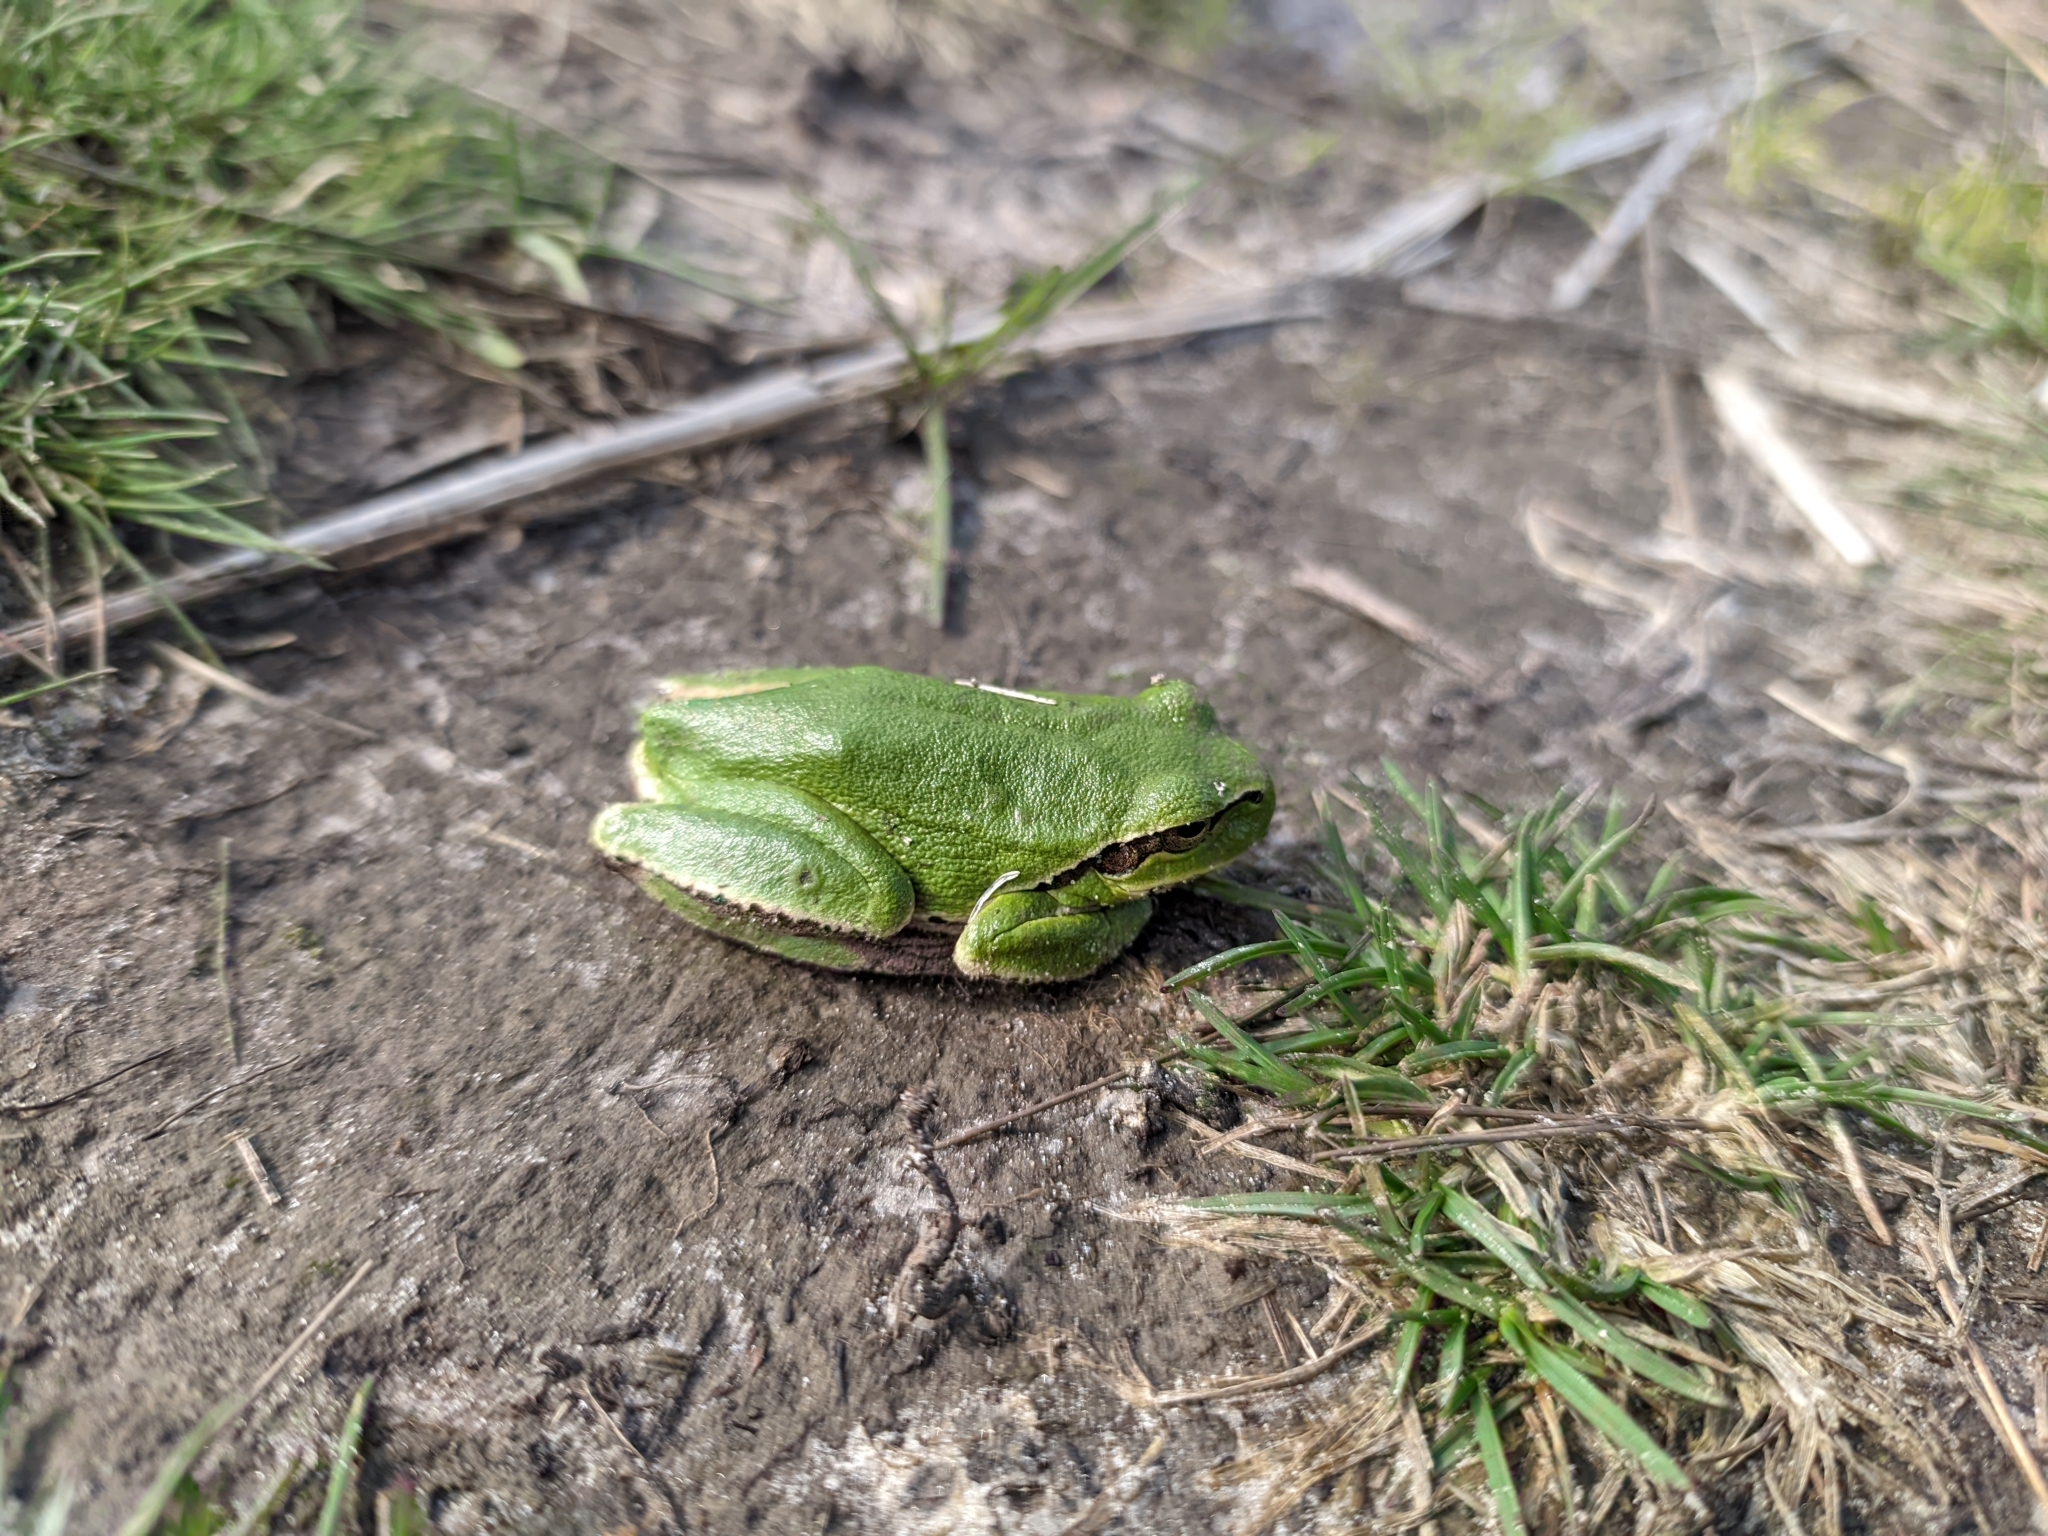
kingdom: Animalia
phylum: Chordata
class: Amphibia
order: Anura
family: Hylidae
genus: Hyla
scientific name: Hyla orientalis
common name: Caucasian treefrog
